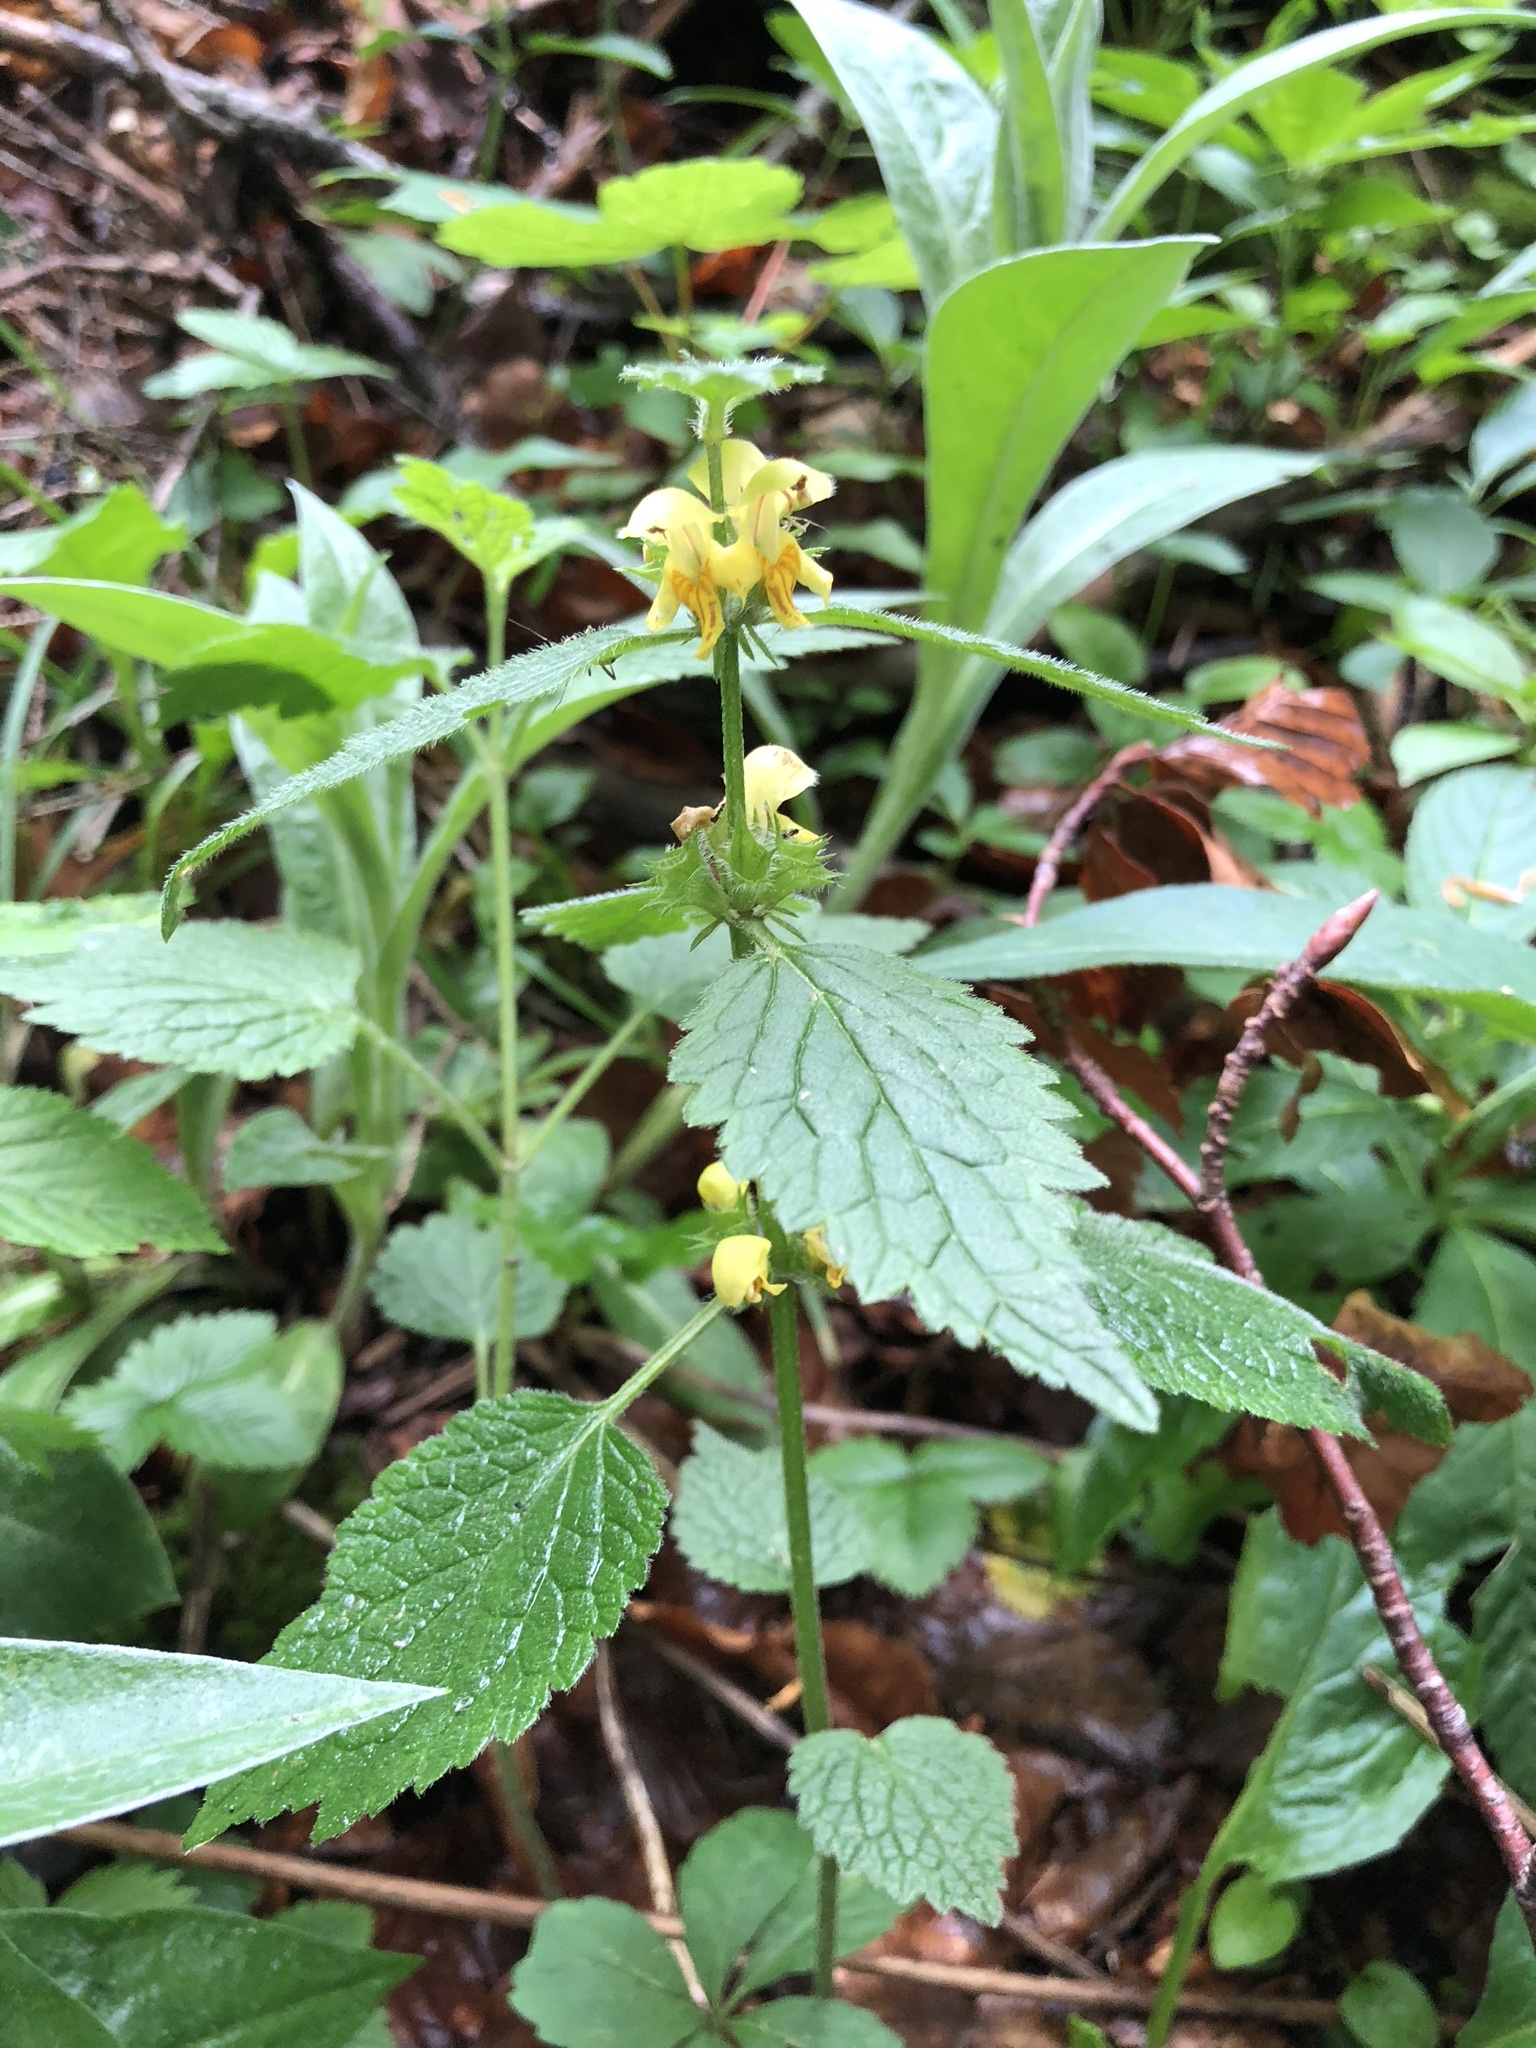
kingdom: Plantae
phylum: Tracheophyta
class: Magnoliopsida
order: Lamiales
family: Lamiaceae
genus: Lamium
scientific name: Lamium galeobdolon
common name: Yellow archangel
